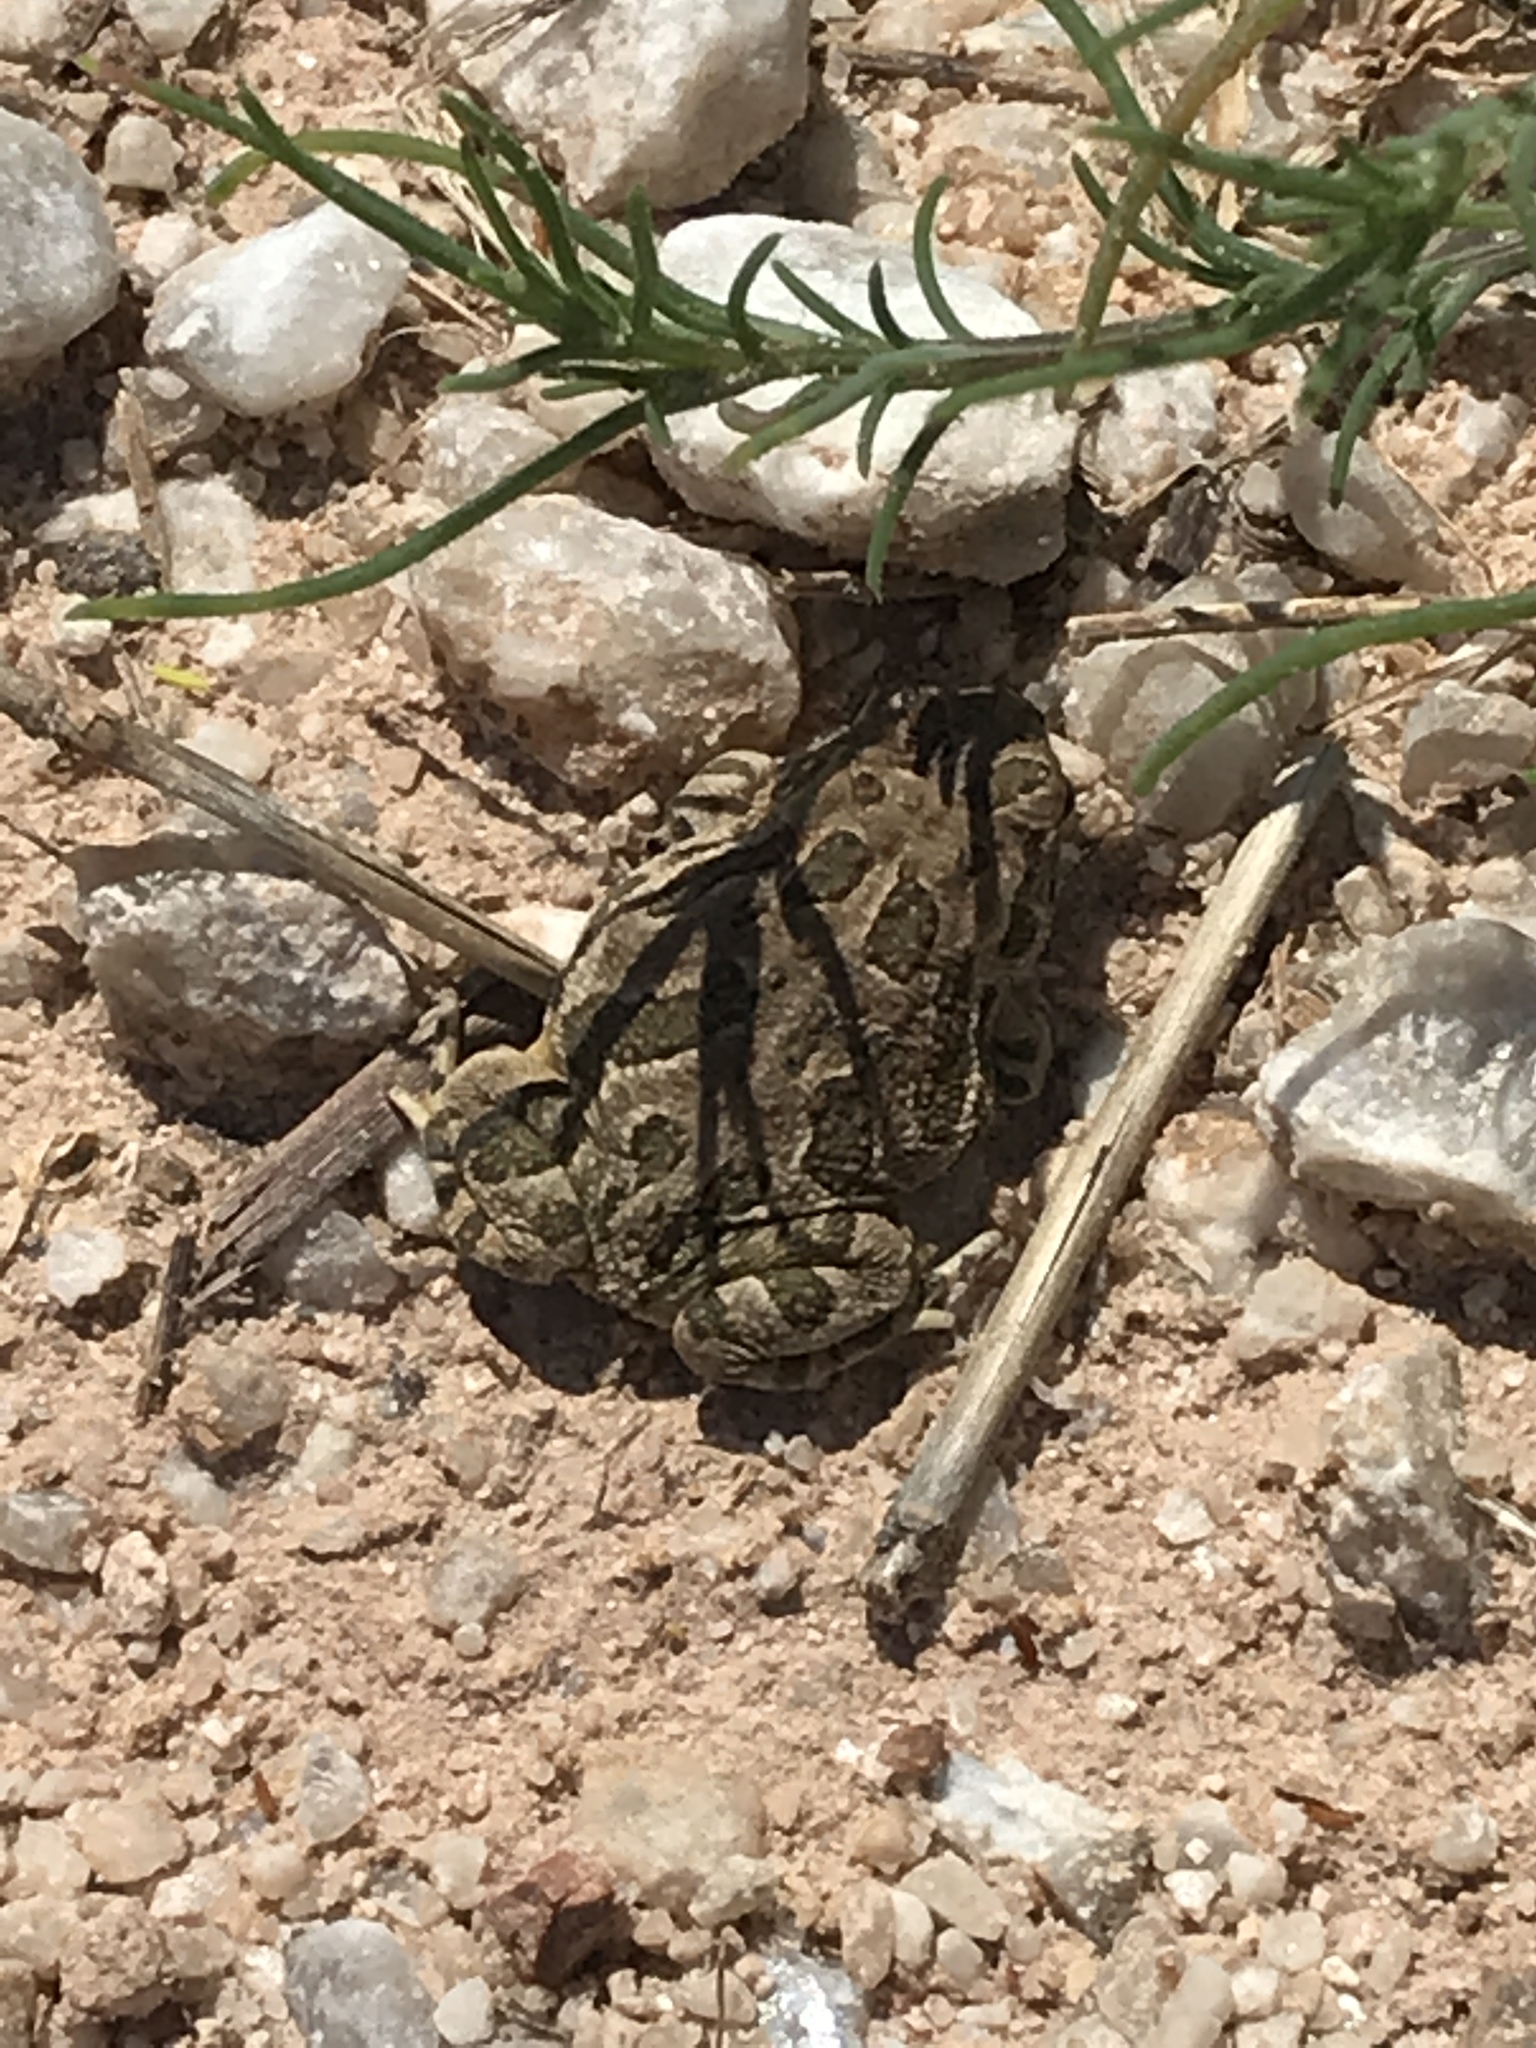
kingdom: Animalia
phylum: Chordata
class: Amphibia
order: Anura
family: Bufonidae
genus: Anaxyrus
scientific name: Anaxyrus cognatus
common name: Great plains toad
